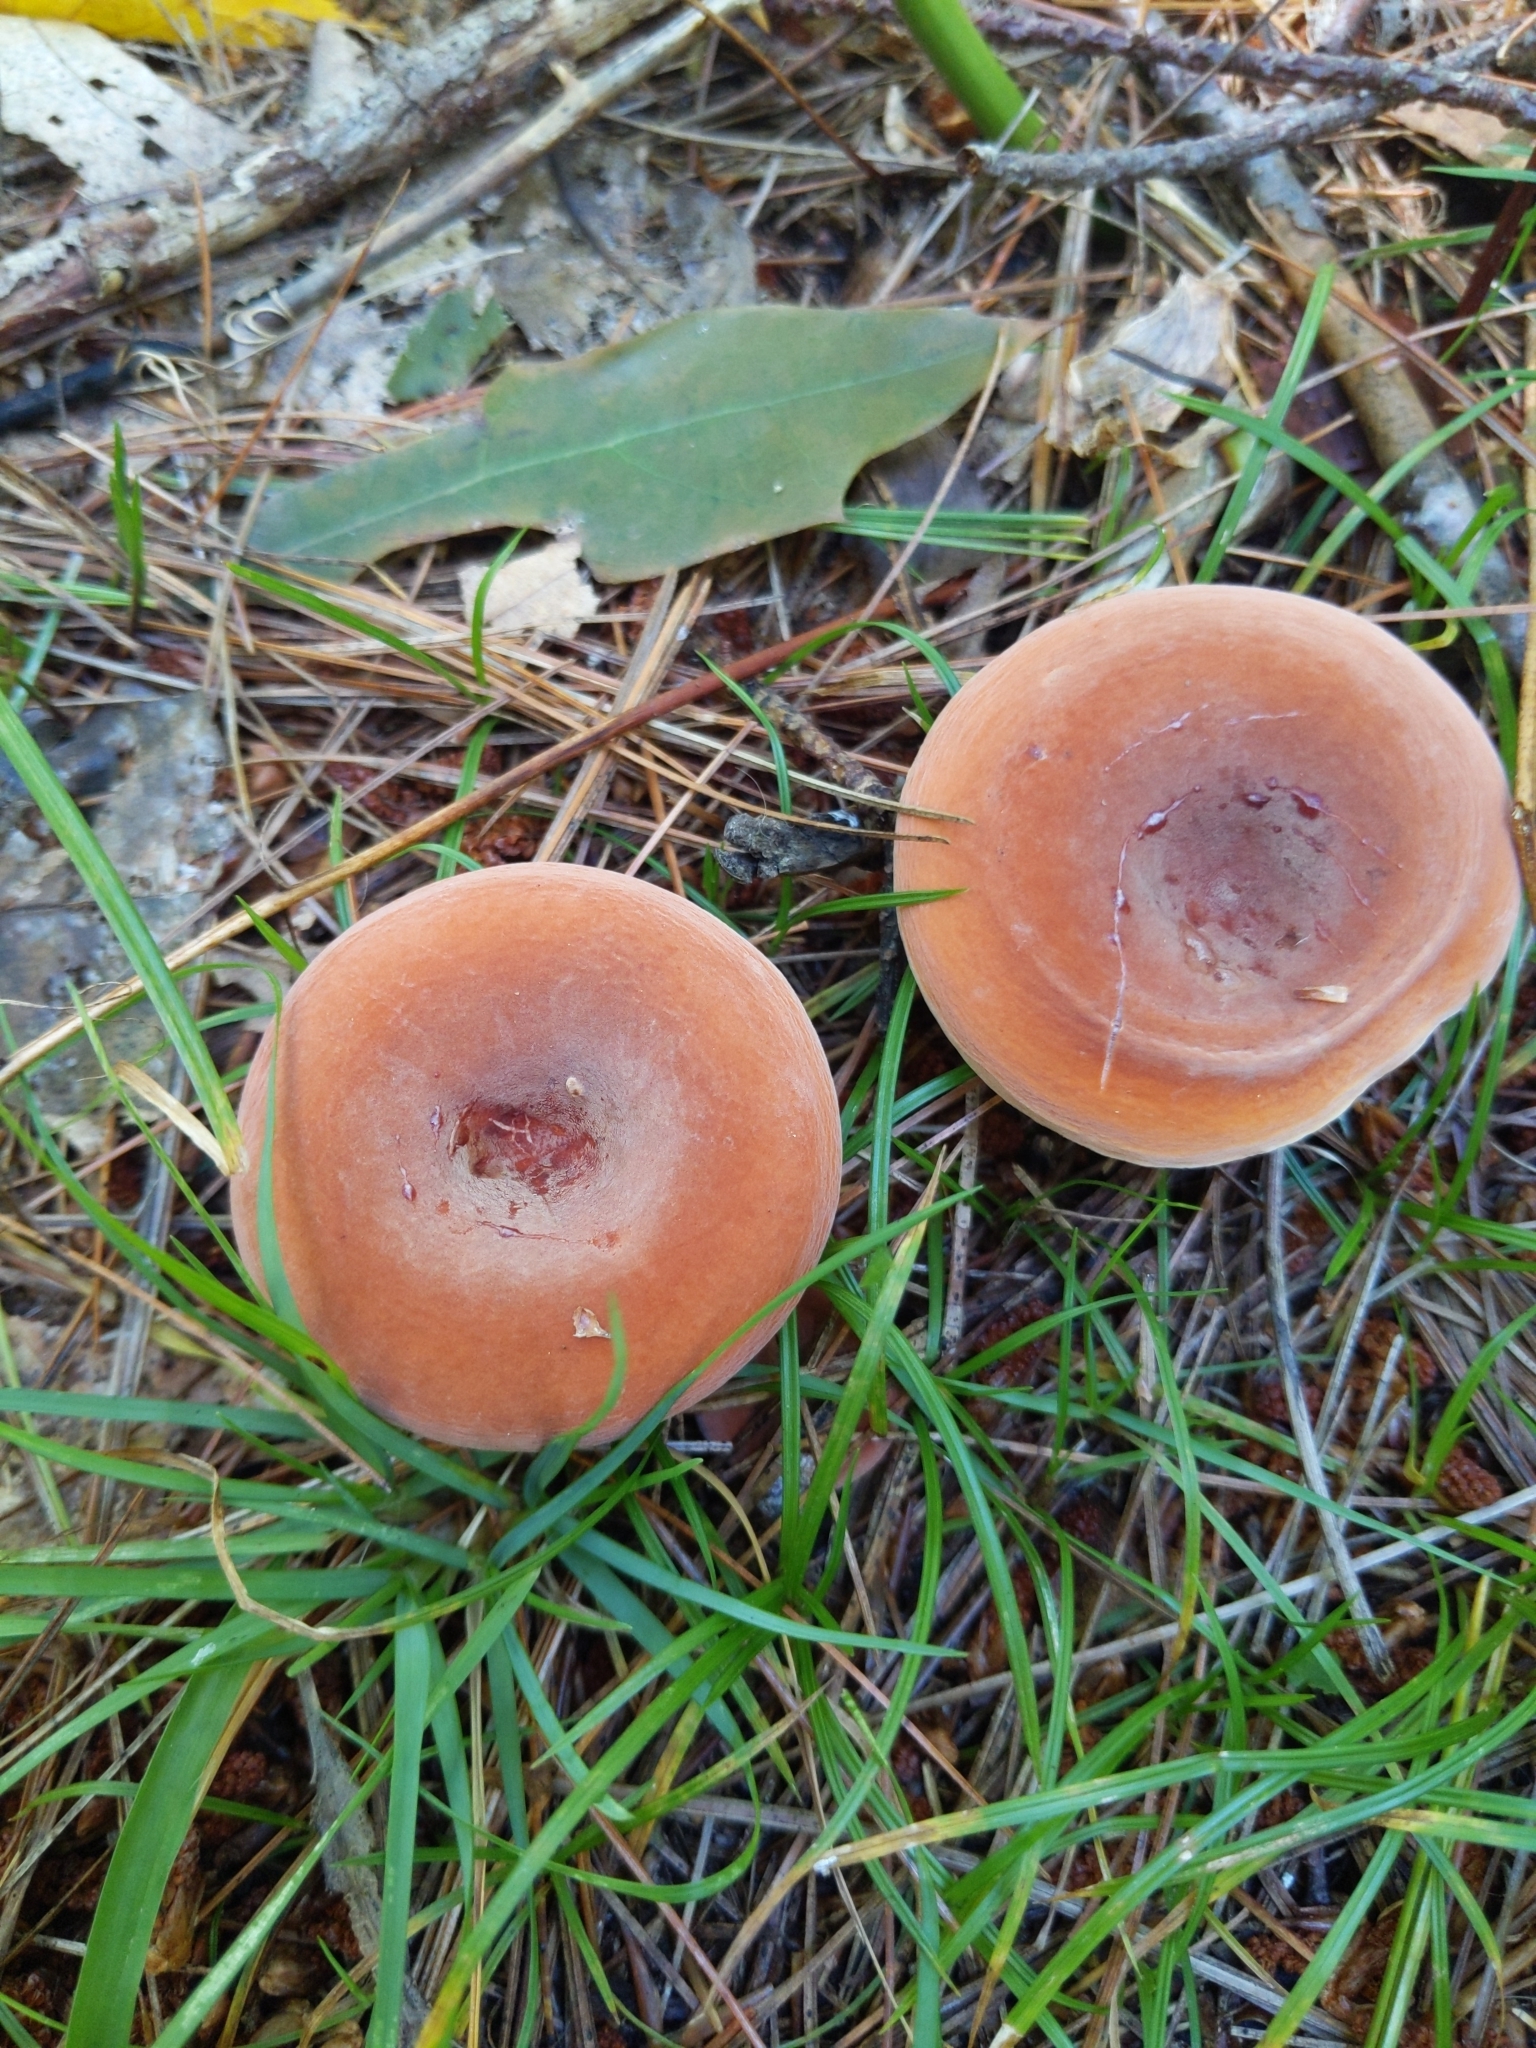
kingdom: Fungi
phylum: Basidiomycota
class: Agaricomycetes
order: Russulales
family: Russulaceae
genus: Lactarius
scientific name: Lactarius hygrophoroides
